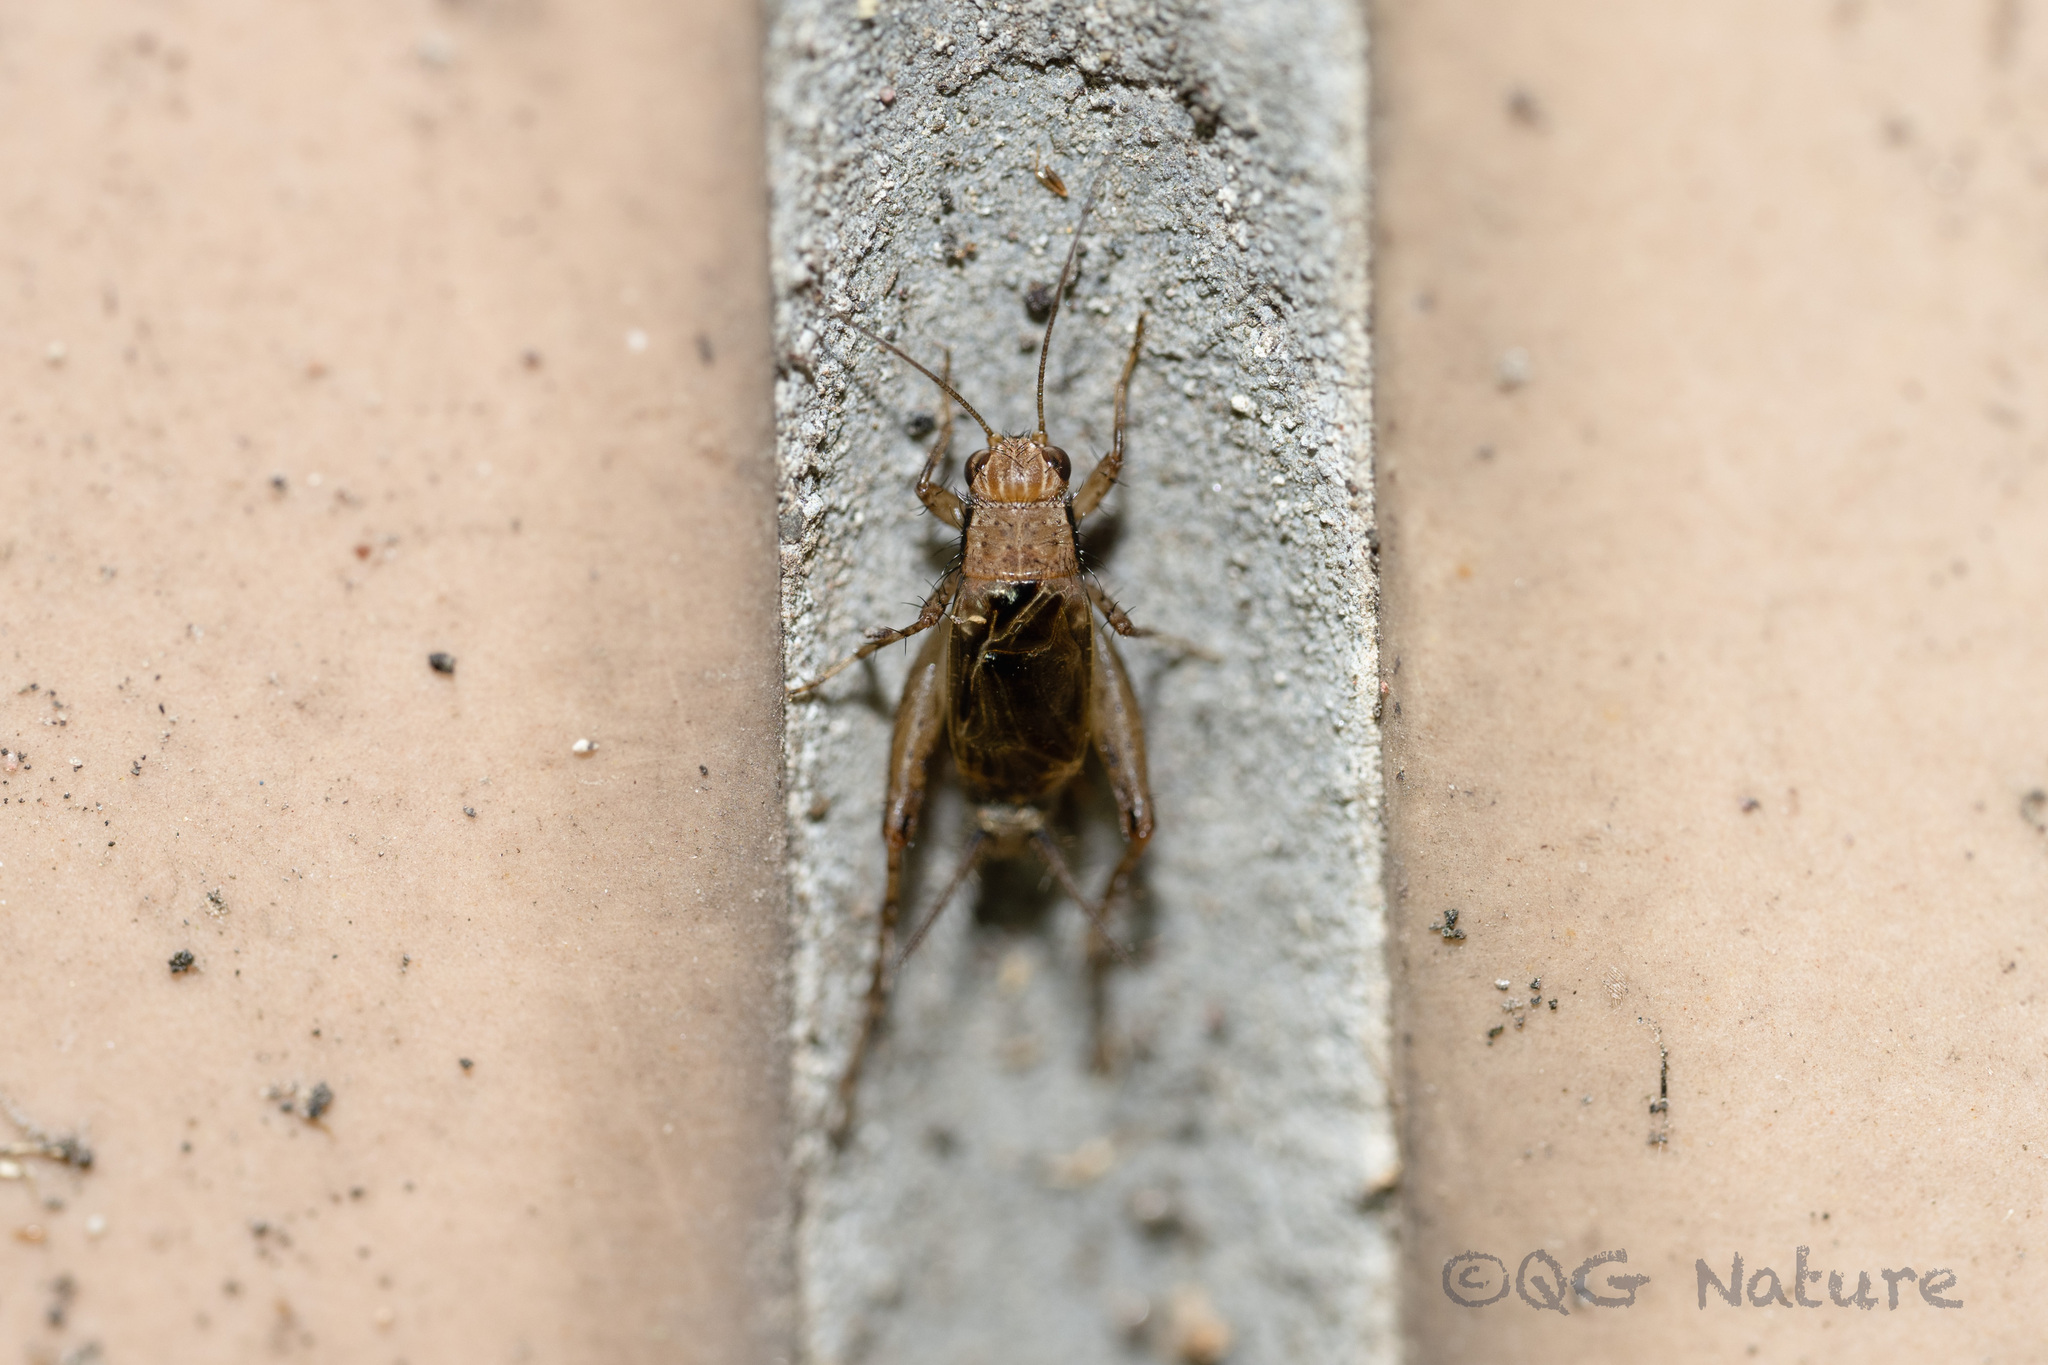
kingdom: Animalia
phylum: Arthropoda
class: Insecta
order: Orthoptera
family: Trigonidiidae
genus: Polionemobius
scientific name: Polionemobius taprobanense
